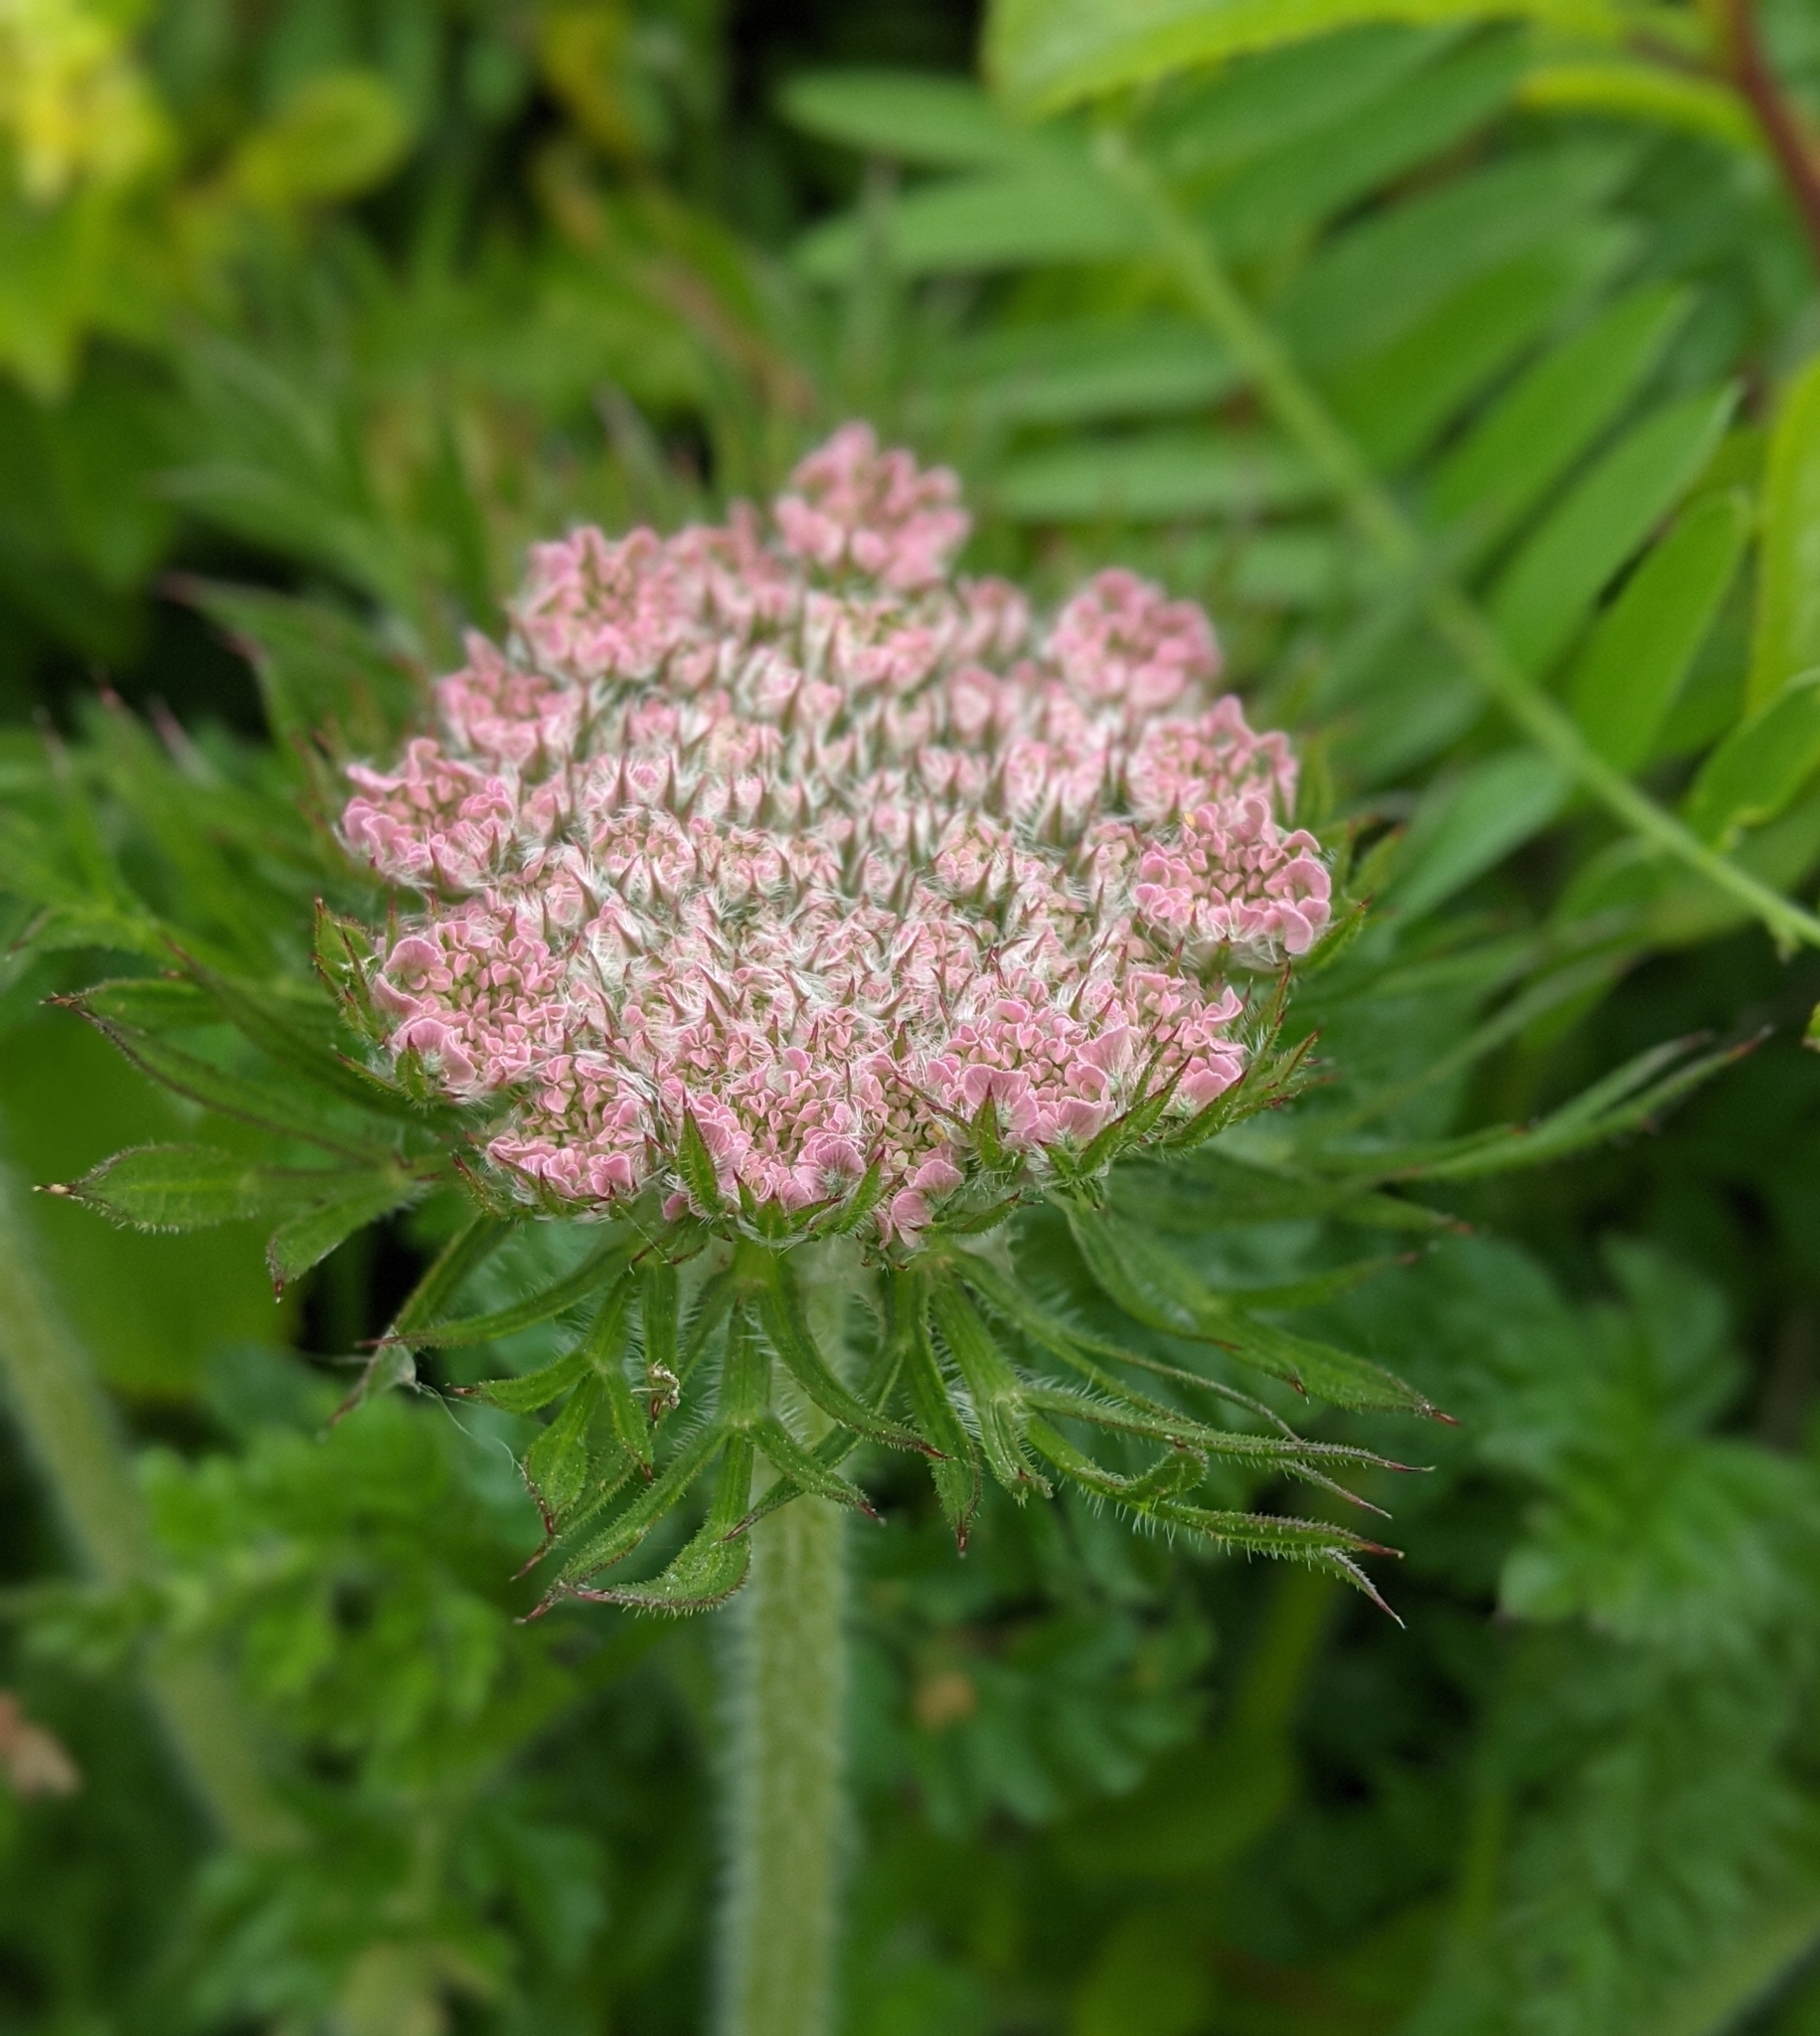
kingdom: Plantae
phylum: Tracheophyta
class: Magnoliopsida
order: Apiales
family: Apiaceae
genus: Daucus
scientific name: Daucus carota
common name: Wild carrot
